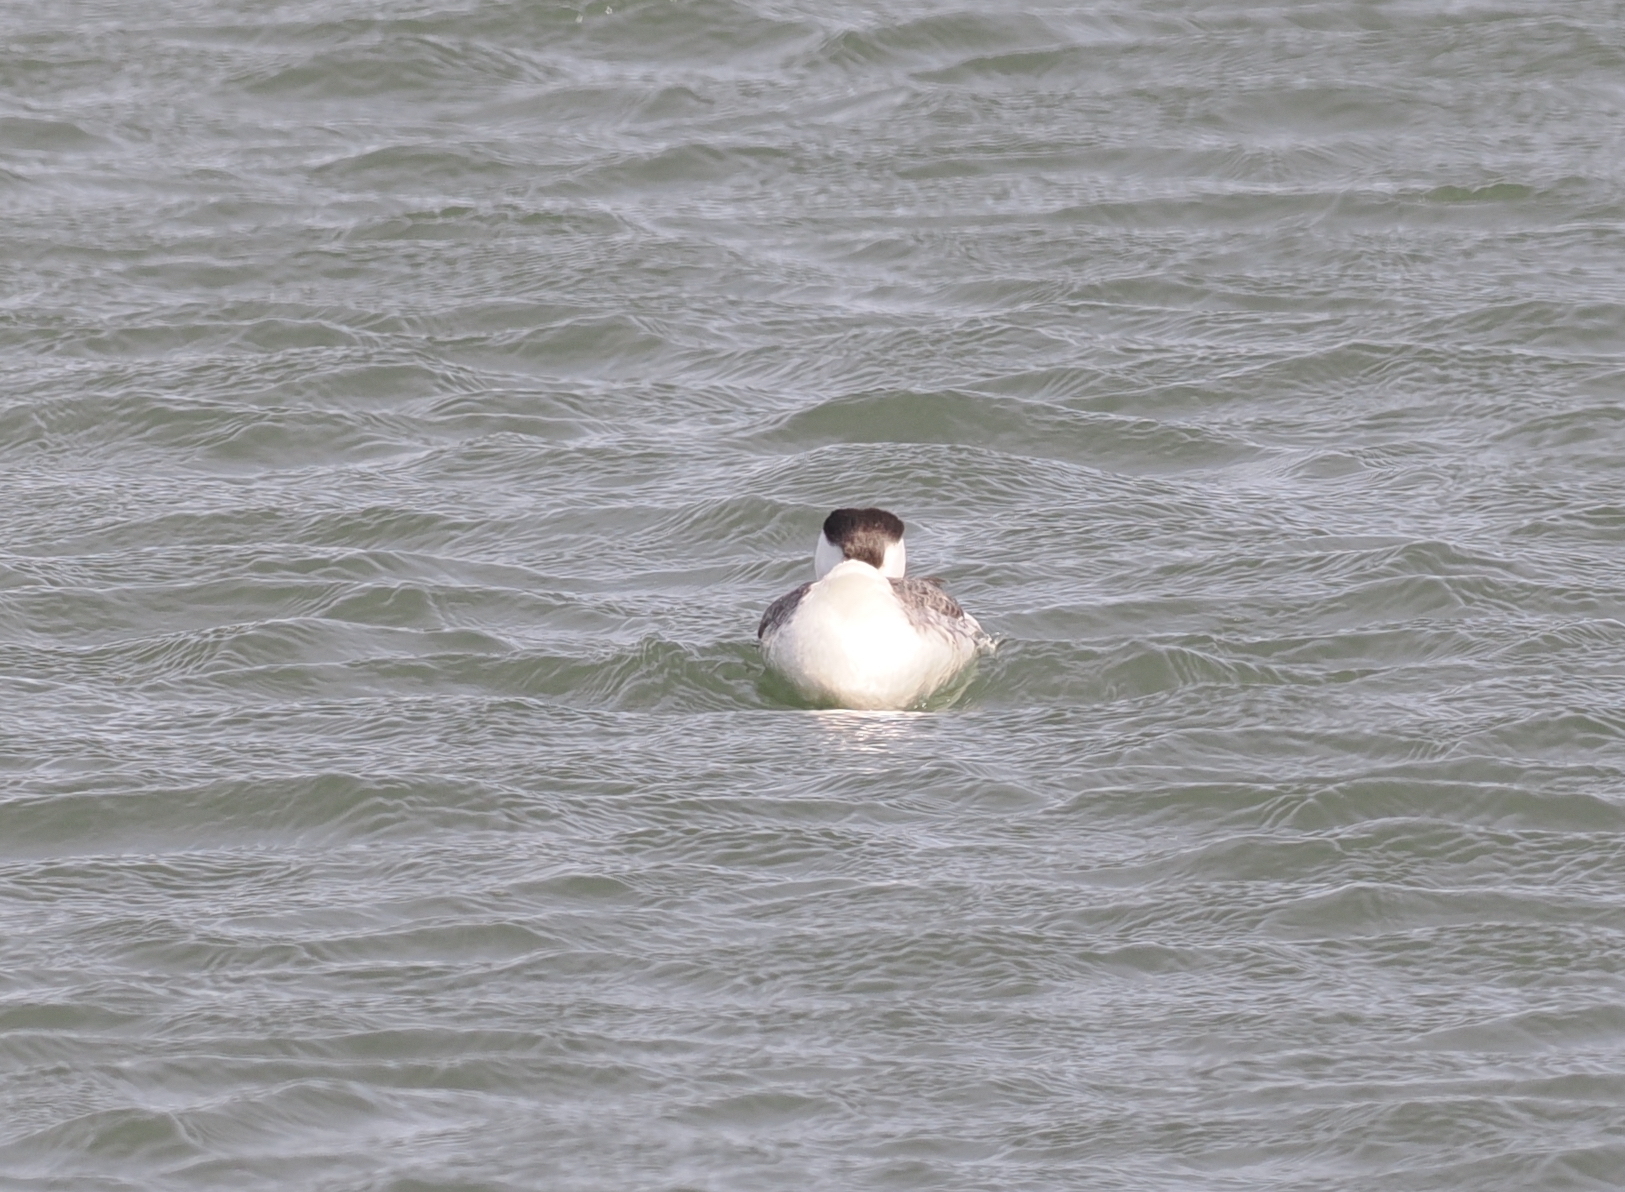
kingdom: Animalia
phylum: Chordata
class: Aves
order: Podicipediformes
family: Podicipedidae
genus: Aechmophorus
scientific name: Aechmophorus occidentalis
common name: Western grebe
